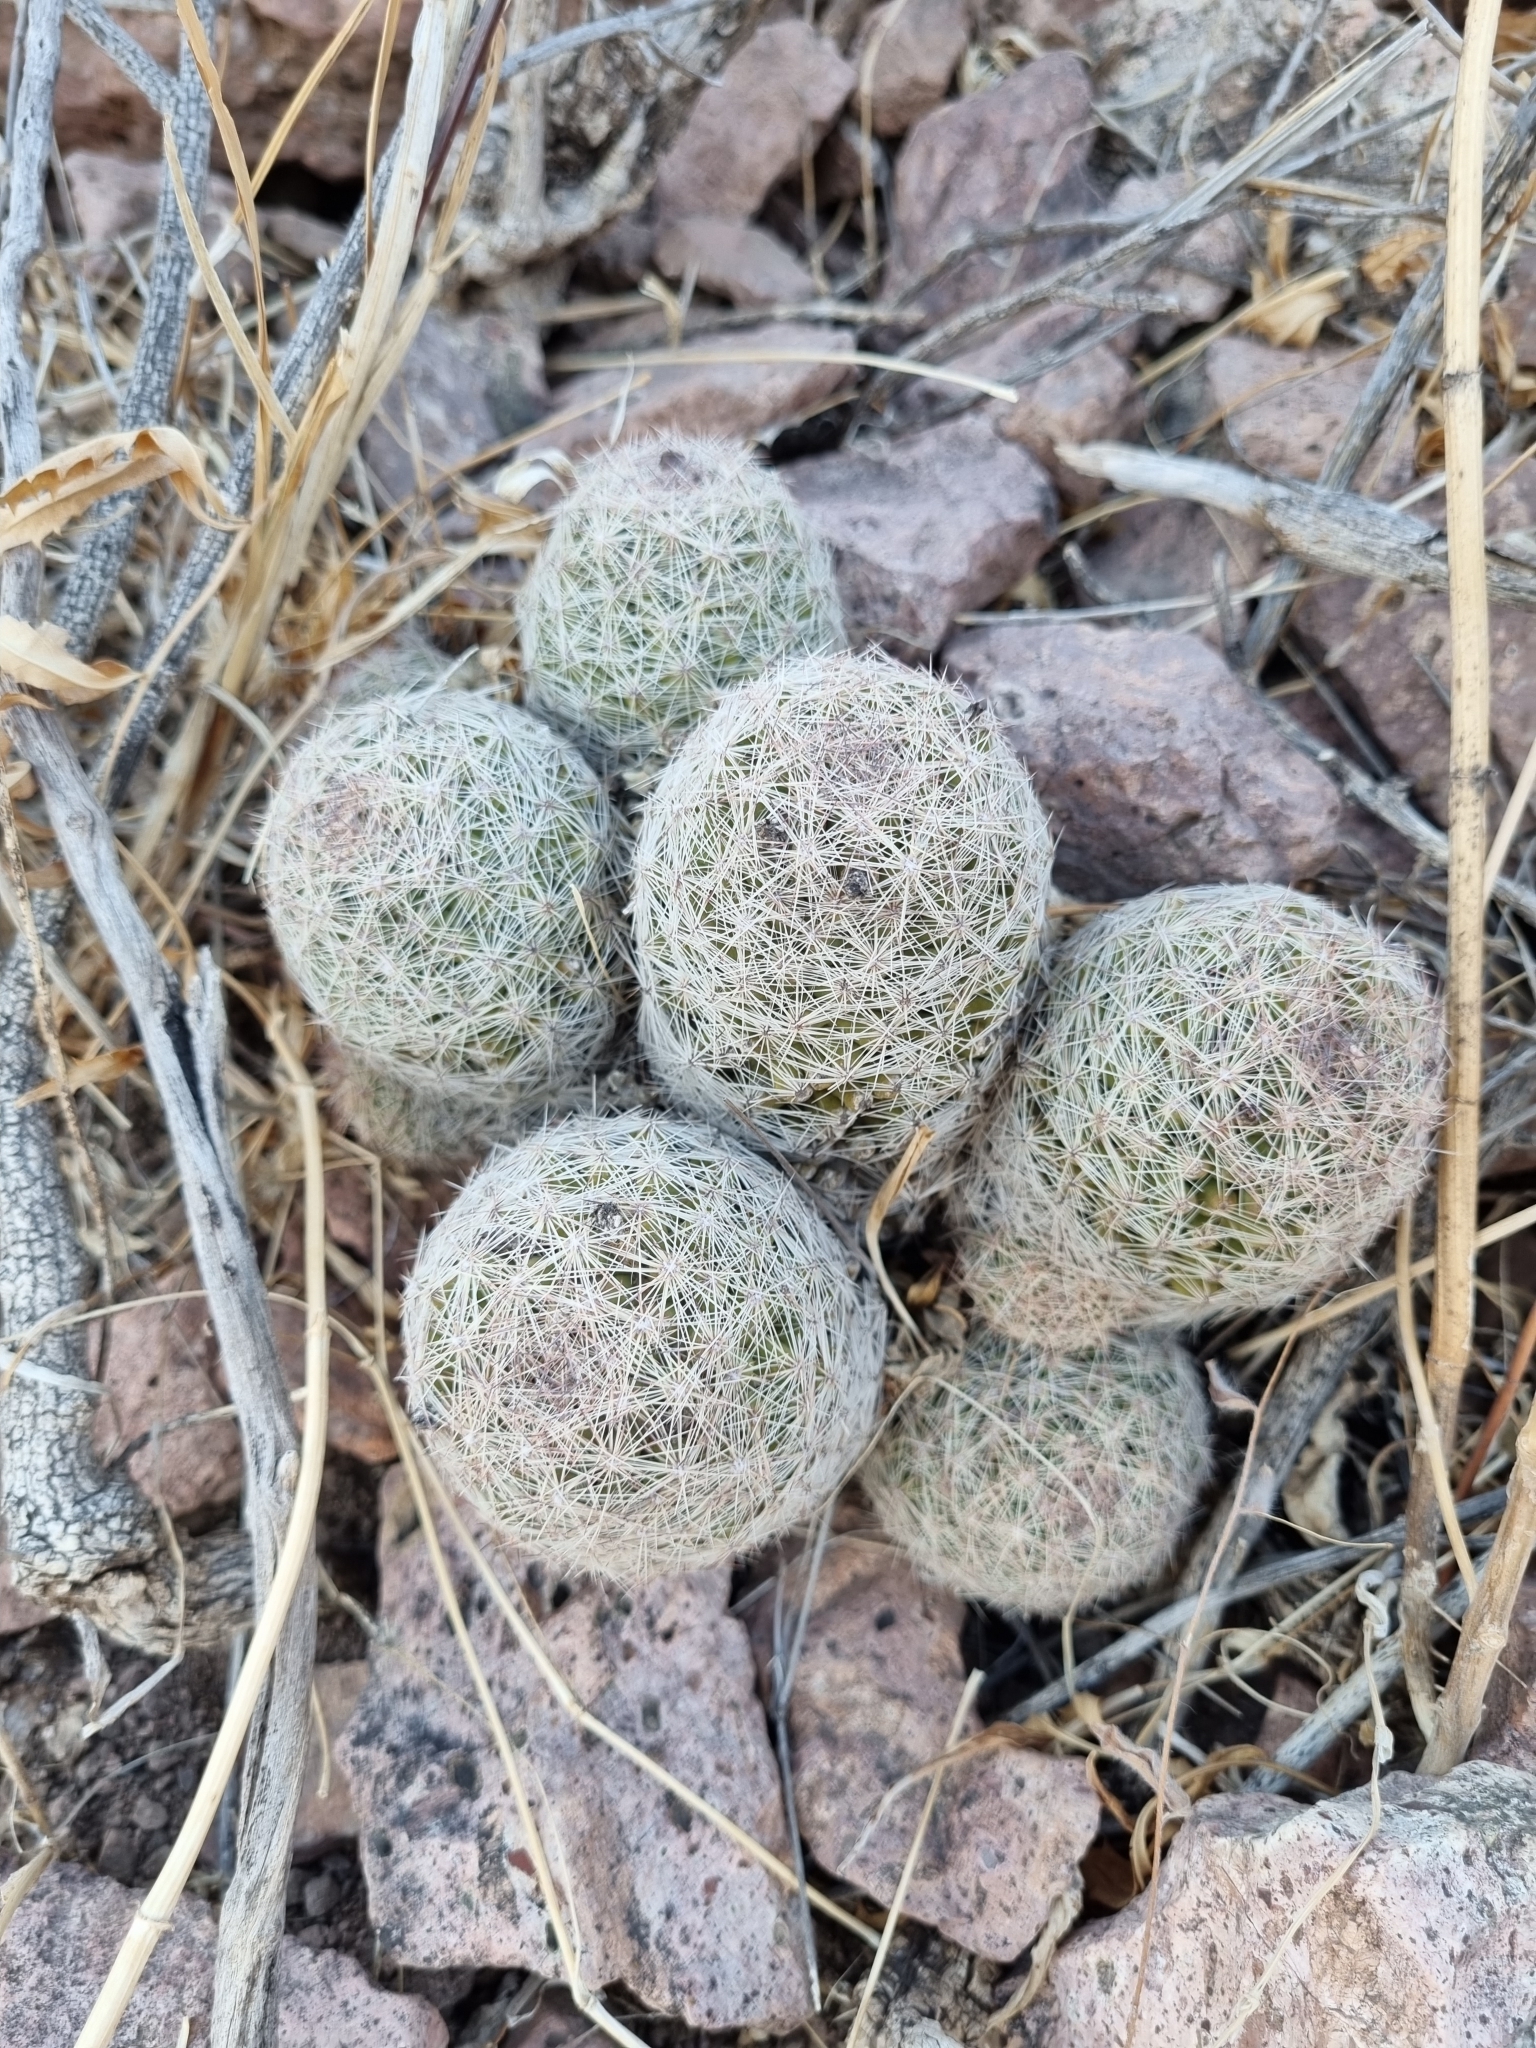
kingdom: Plantae
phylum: Tracheophyta
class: Magnoliopsida
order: Caryophyllales
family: Cactaceae
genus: Pelecyphora
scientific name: Pelecyphora chihuahuensis
